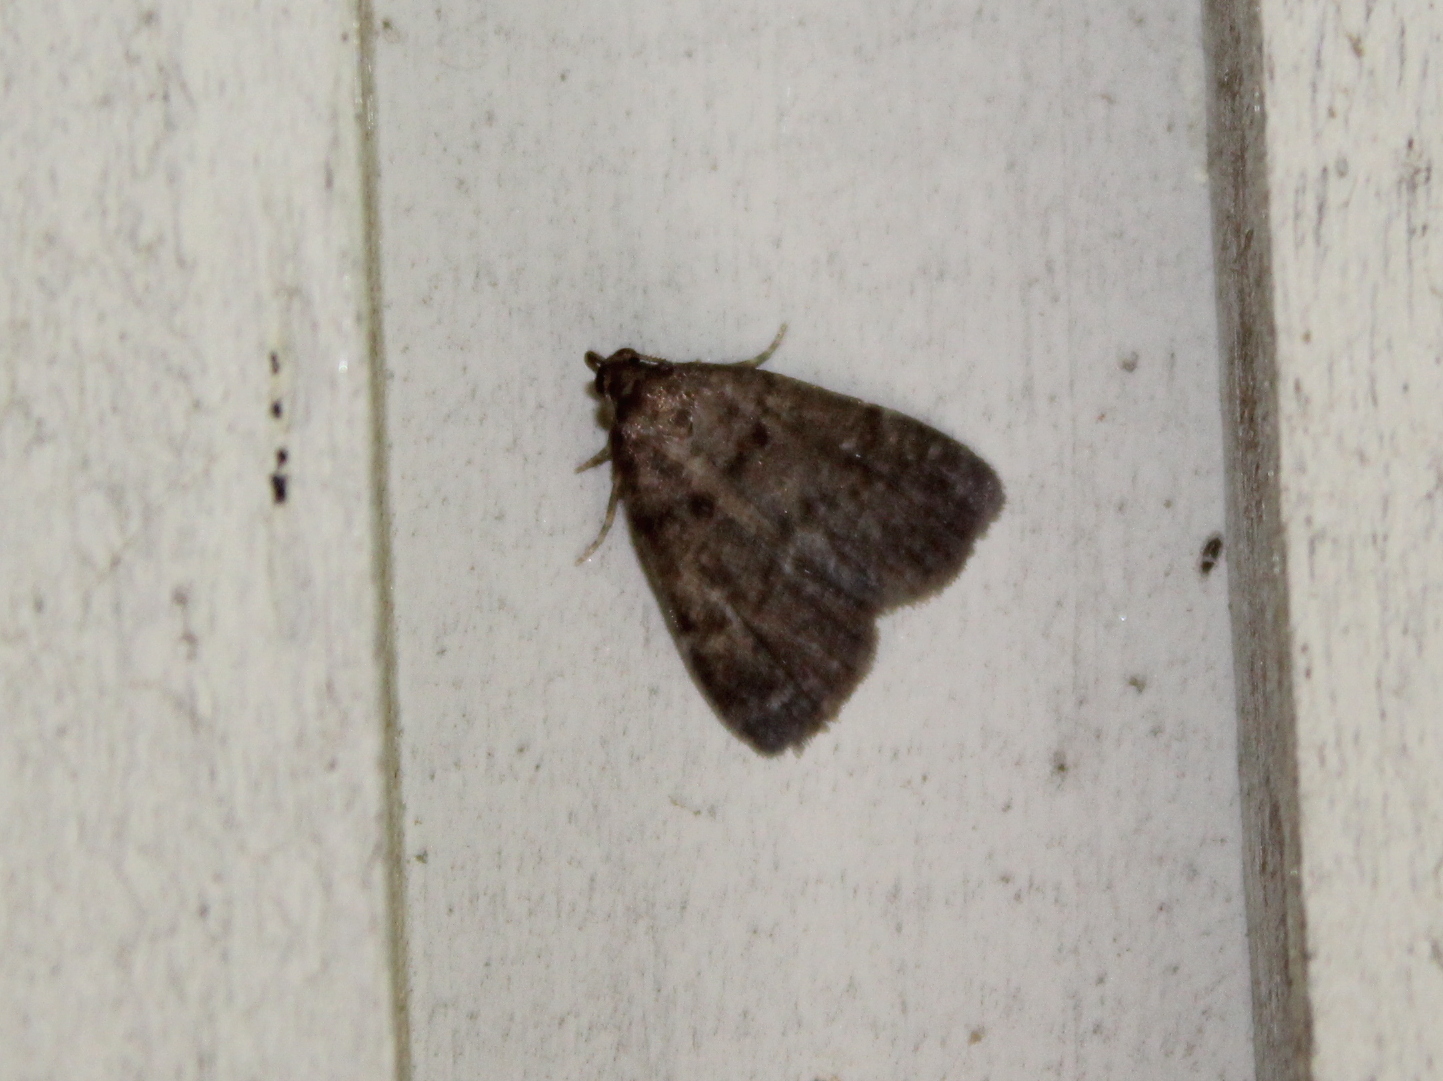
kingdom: Animalia
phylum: Arthropoda
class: Insecta
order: Lepidoptera
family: Erebidae
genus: Idia
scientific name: Idia rotundalis
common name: Rotund idia moth
